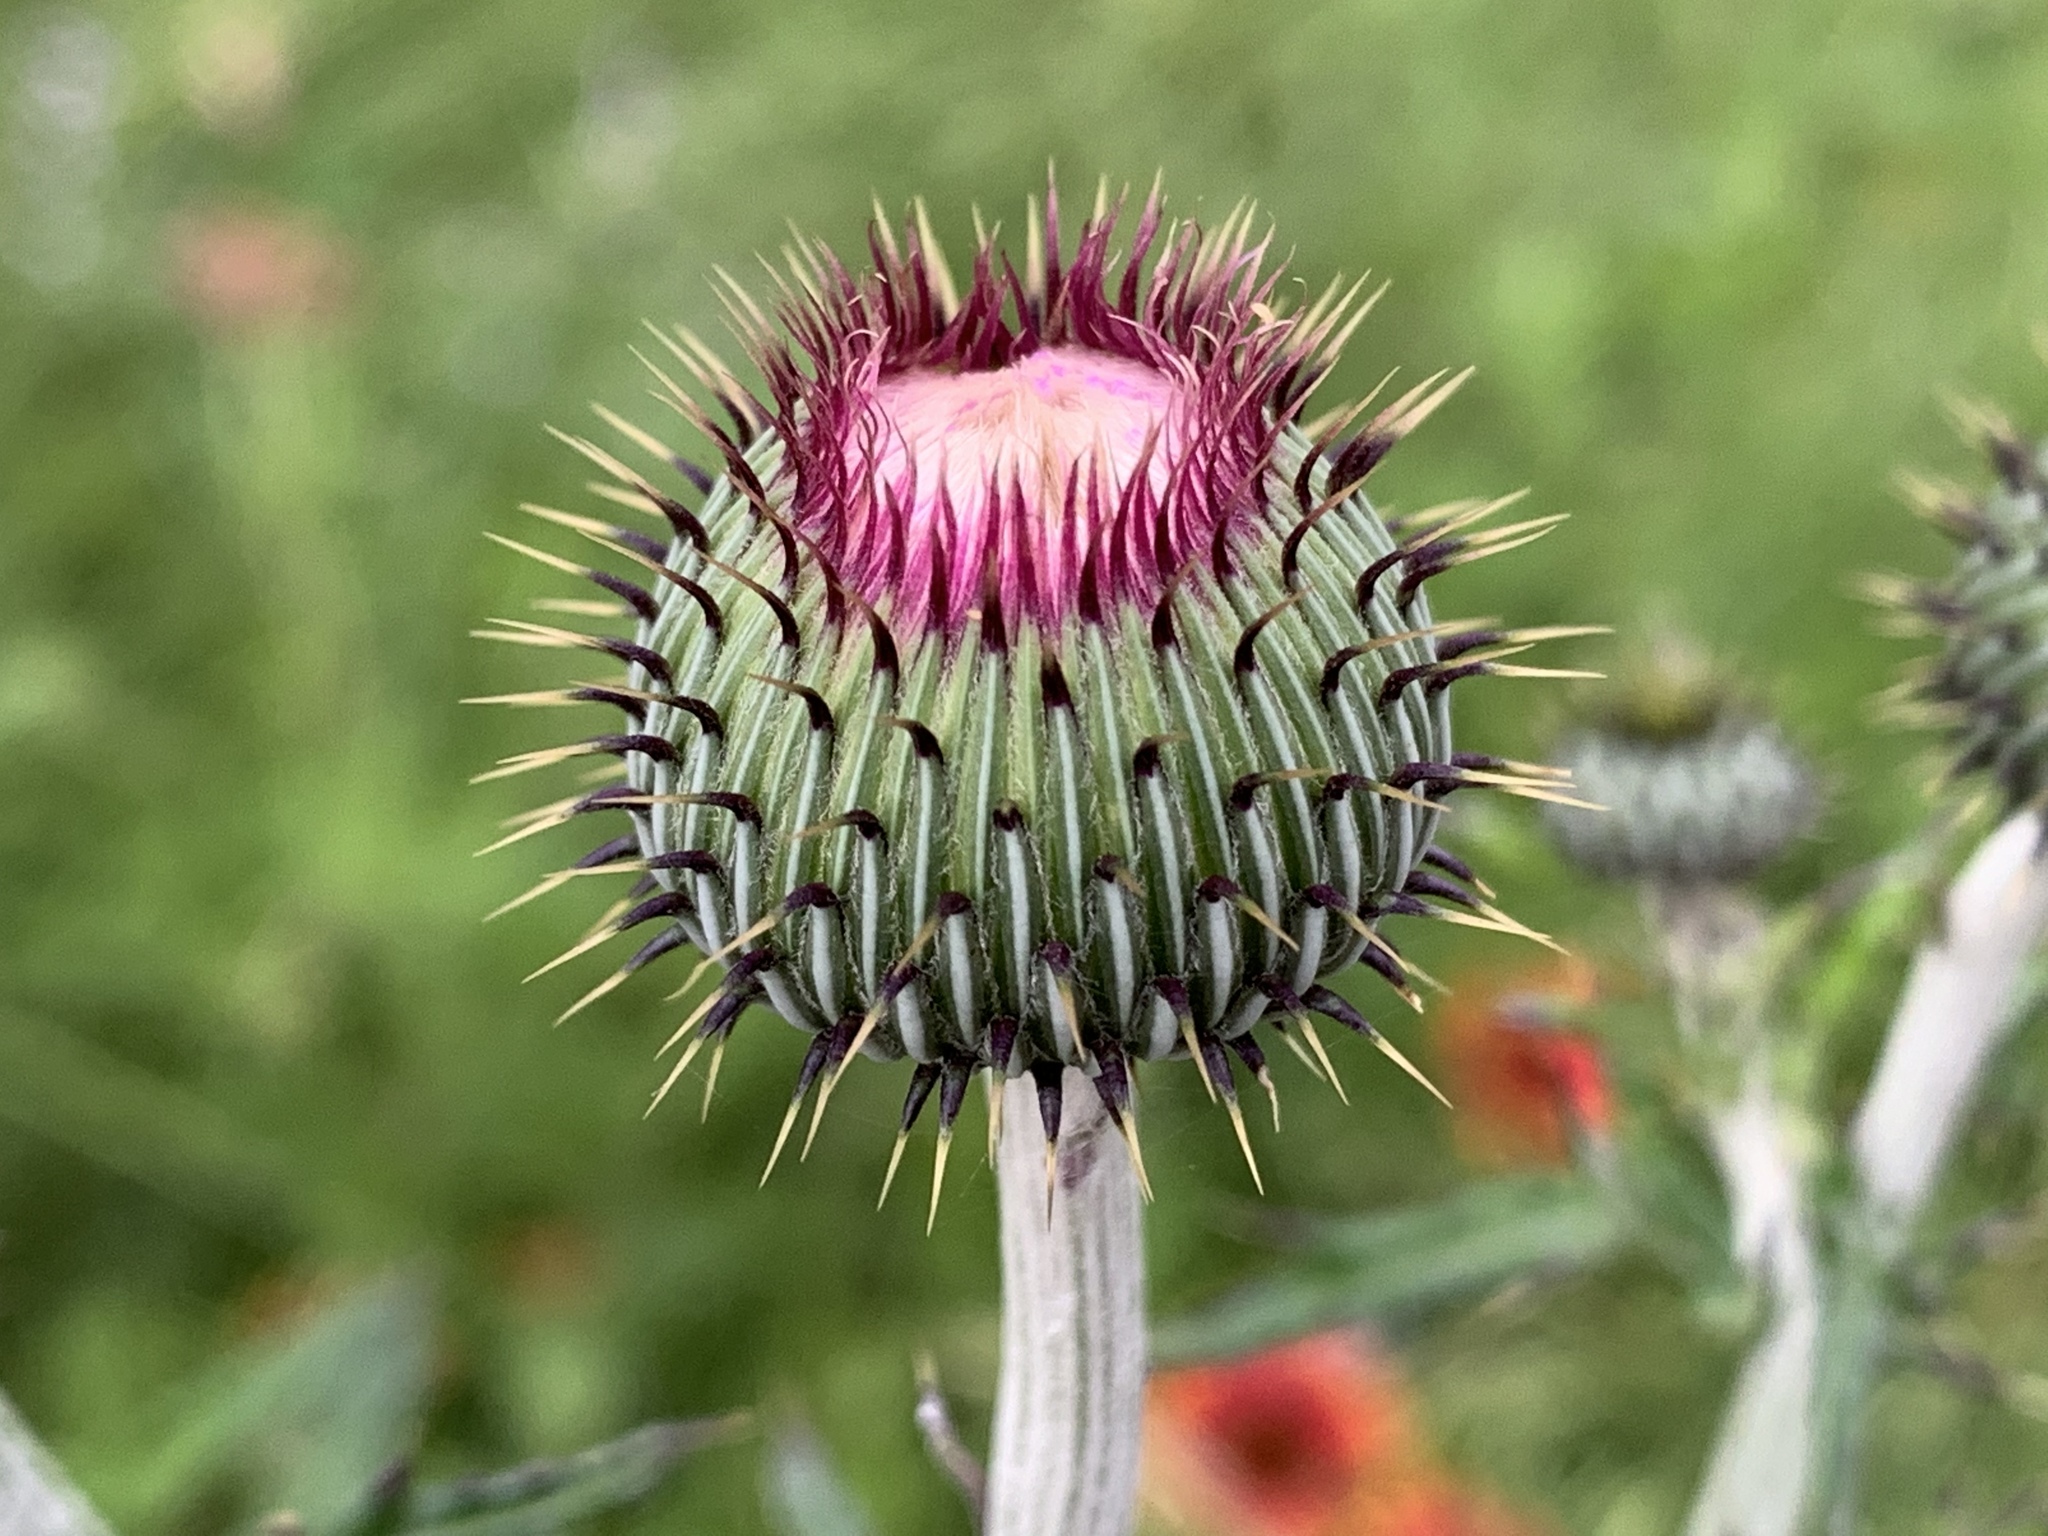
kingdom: Plantae
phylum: Tracheophyta
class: Magnoliopsida
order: Asterales
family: Asteraceae
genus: Cirsium
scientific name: Cirsium texanum
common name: Texas purple thistle
